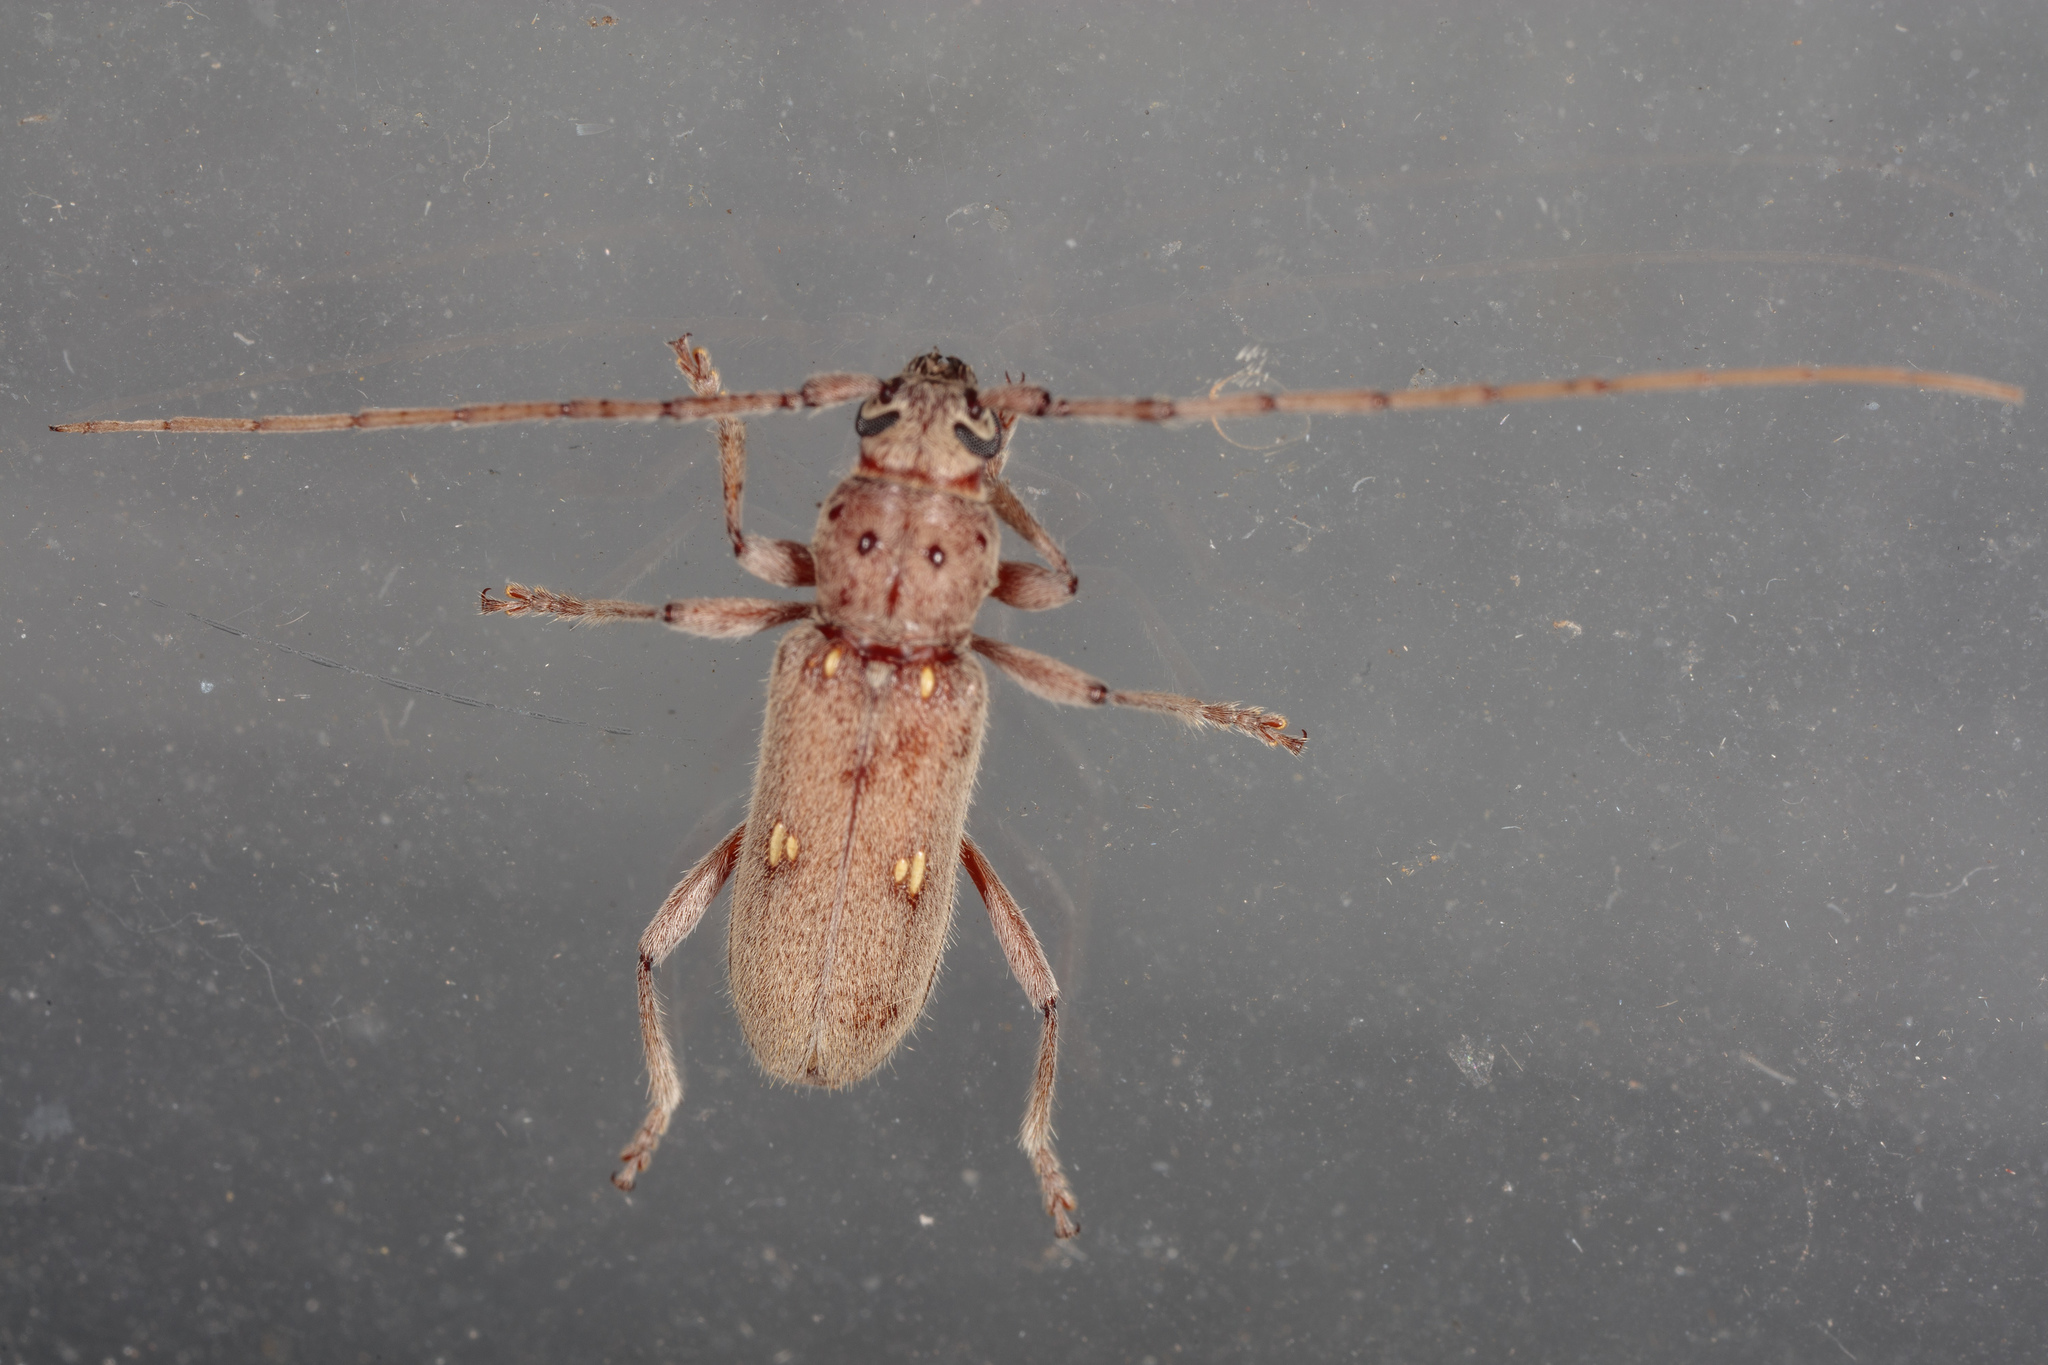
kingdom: Animalia
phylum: Arthropoda
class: Insecta
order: Coleoptera
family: Cerambycidae
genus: Eburia
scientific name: Eburia mutica
